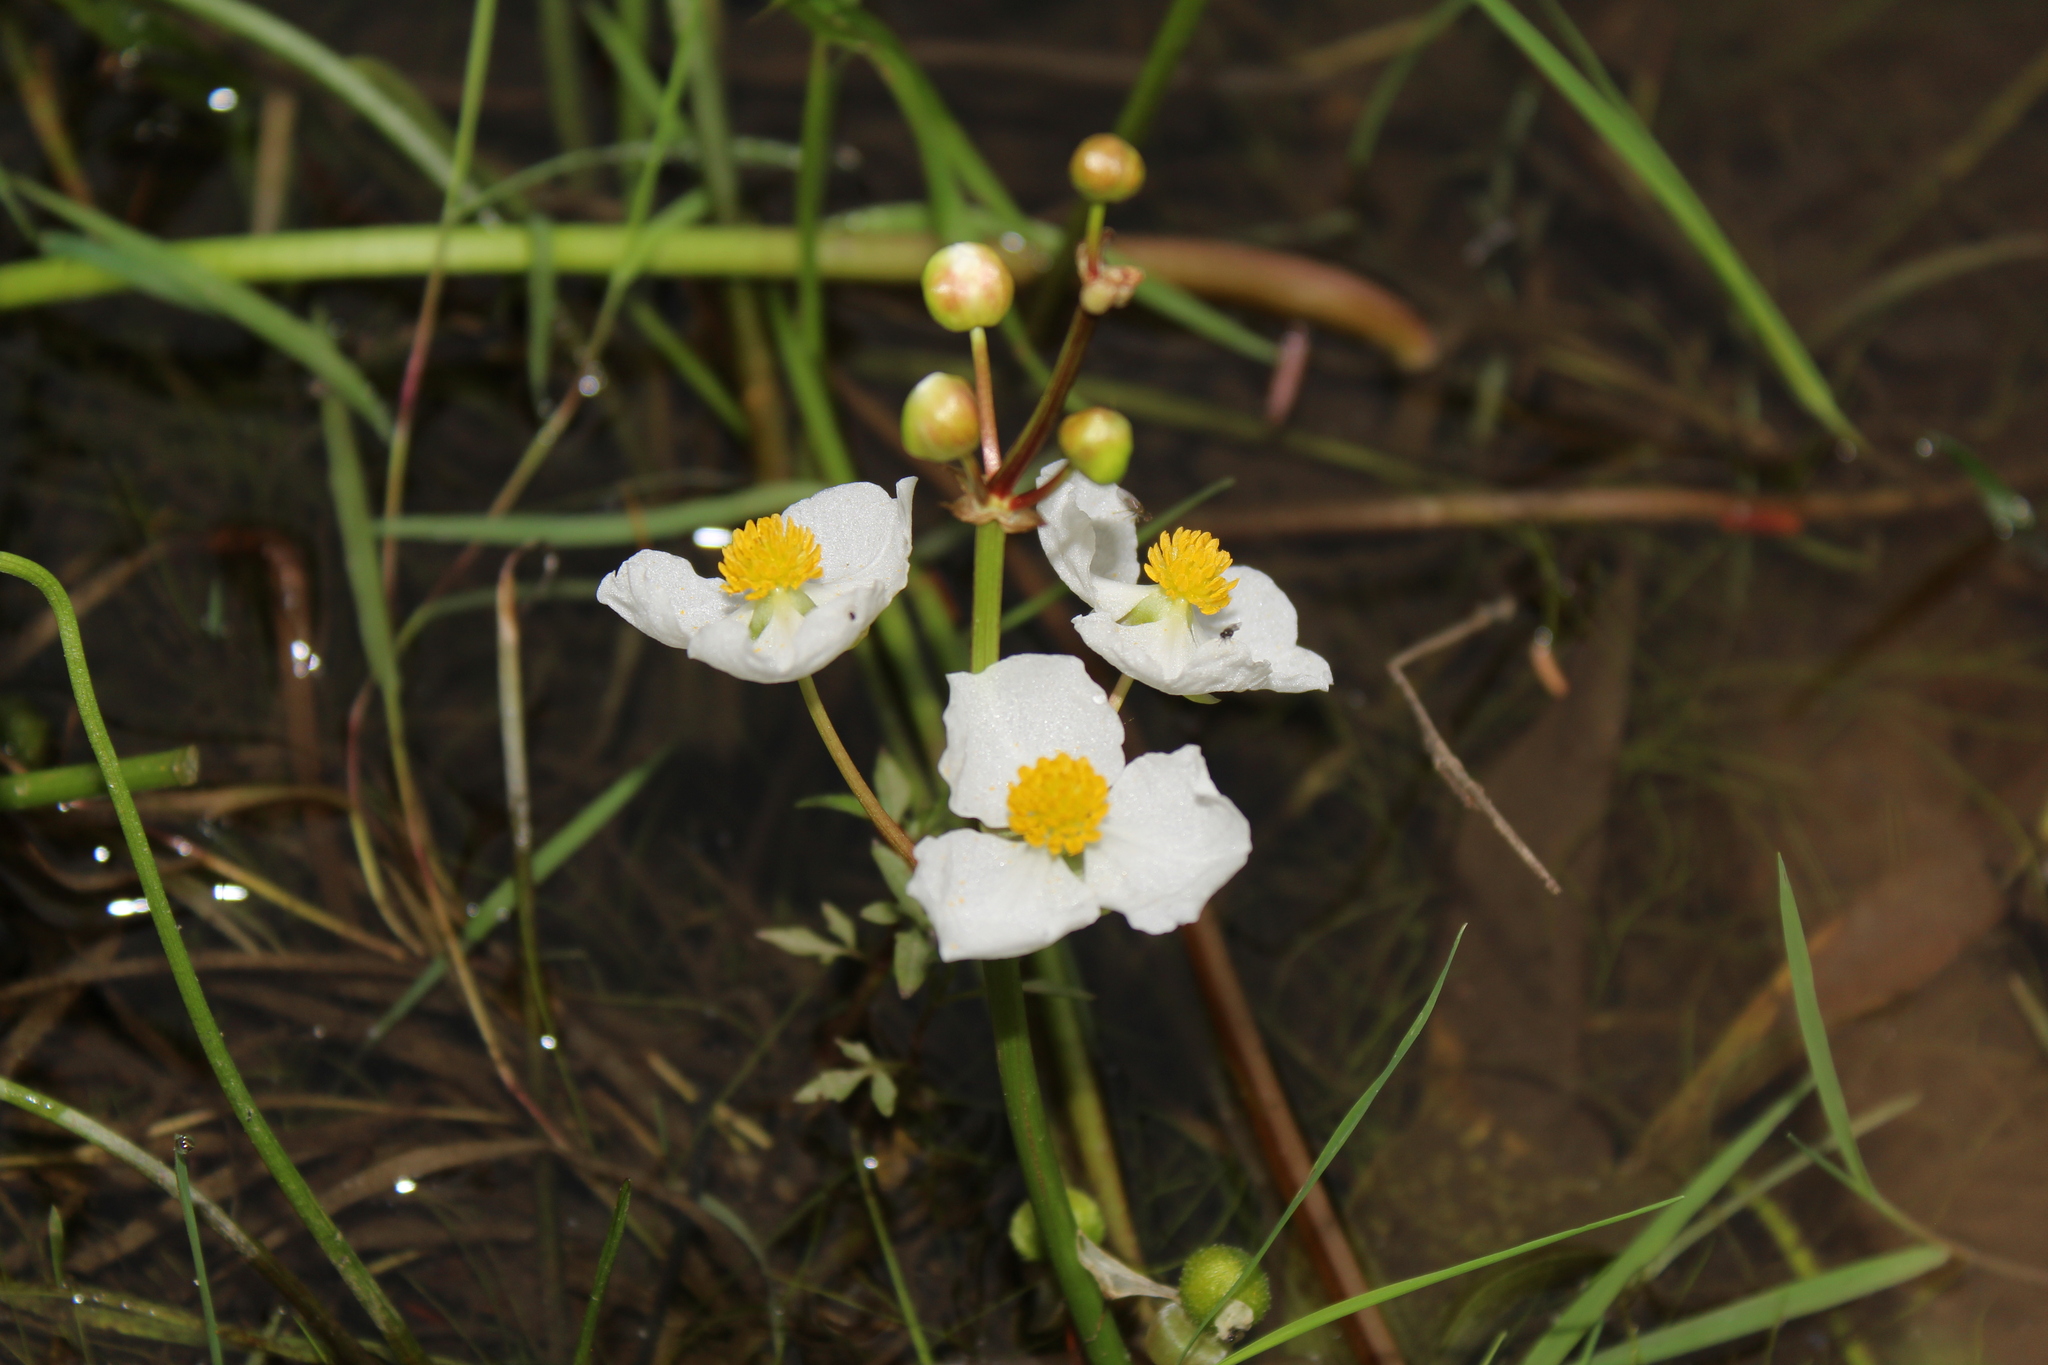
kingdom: Plantae
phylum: Tracheophyta
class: Liliopsida
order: Alismatales
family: Alismataceae
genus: Sagittaria
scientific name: Sagittaria latifolia
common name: Duck-potato
